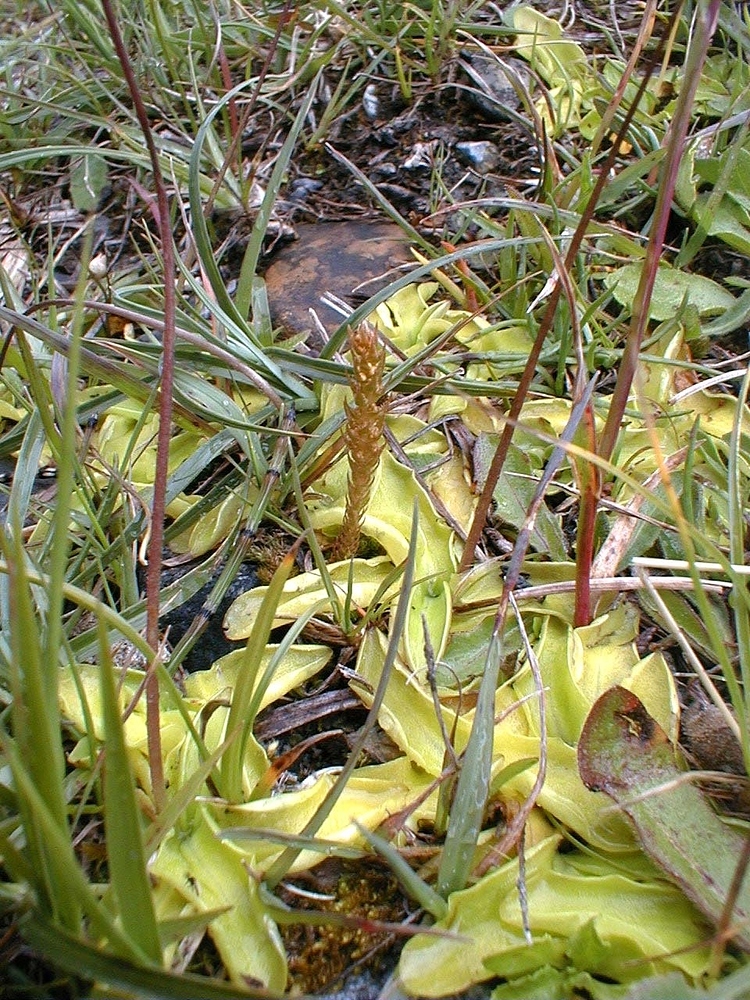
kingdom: Plantae
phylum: Tracheophyta
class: Lycopodiopsida
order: Selaginellales
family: Selaginellaceae
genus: Selaginella
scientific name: Selaginella selaginoides
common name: Prickly mountain-moss
